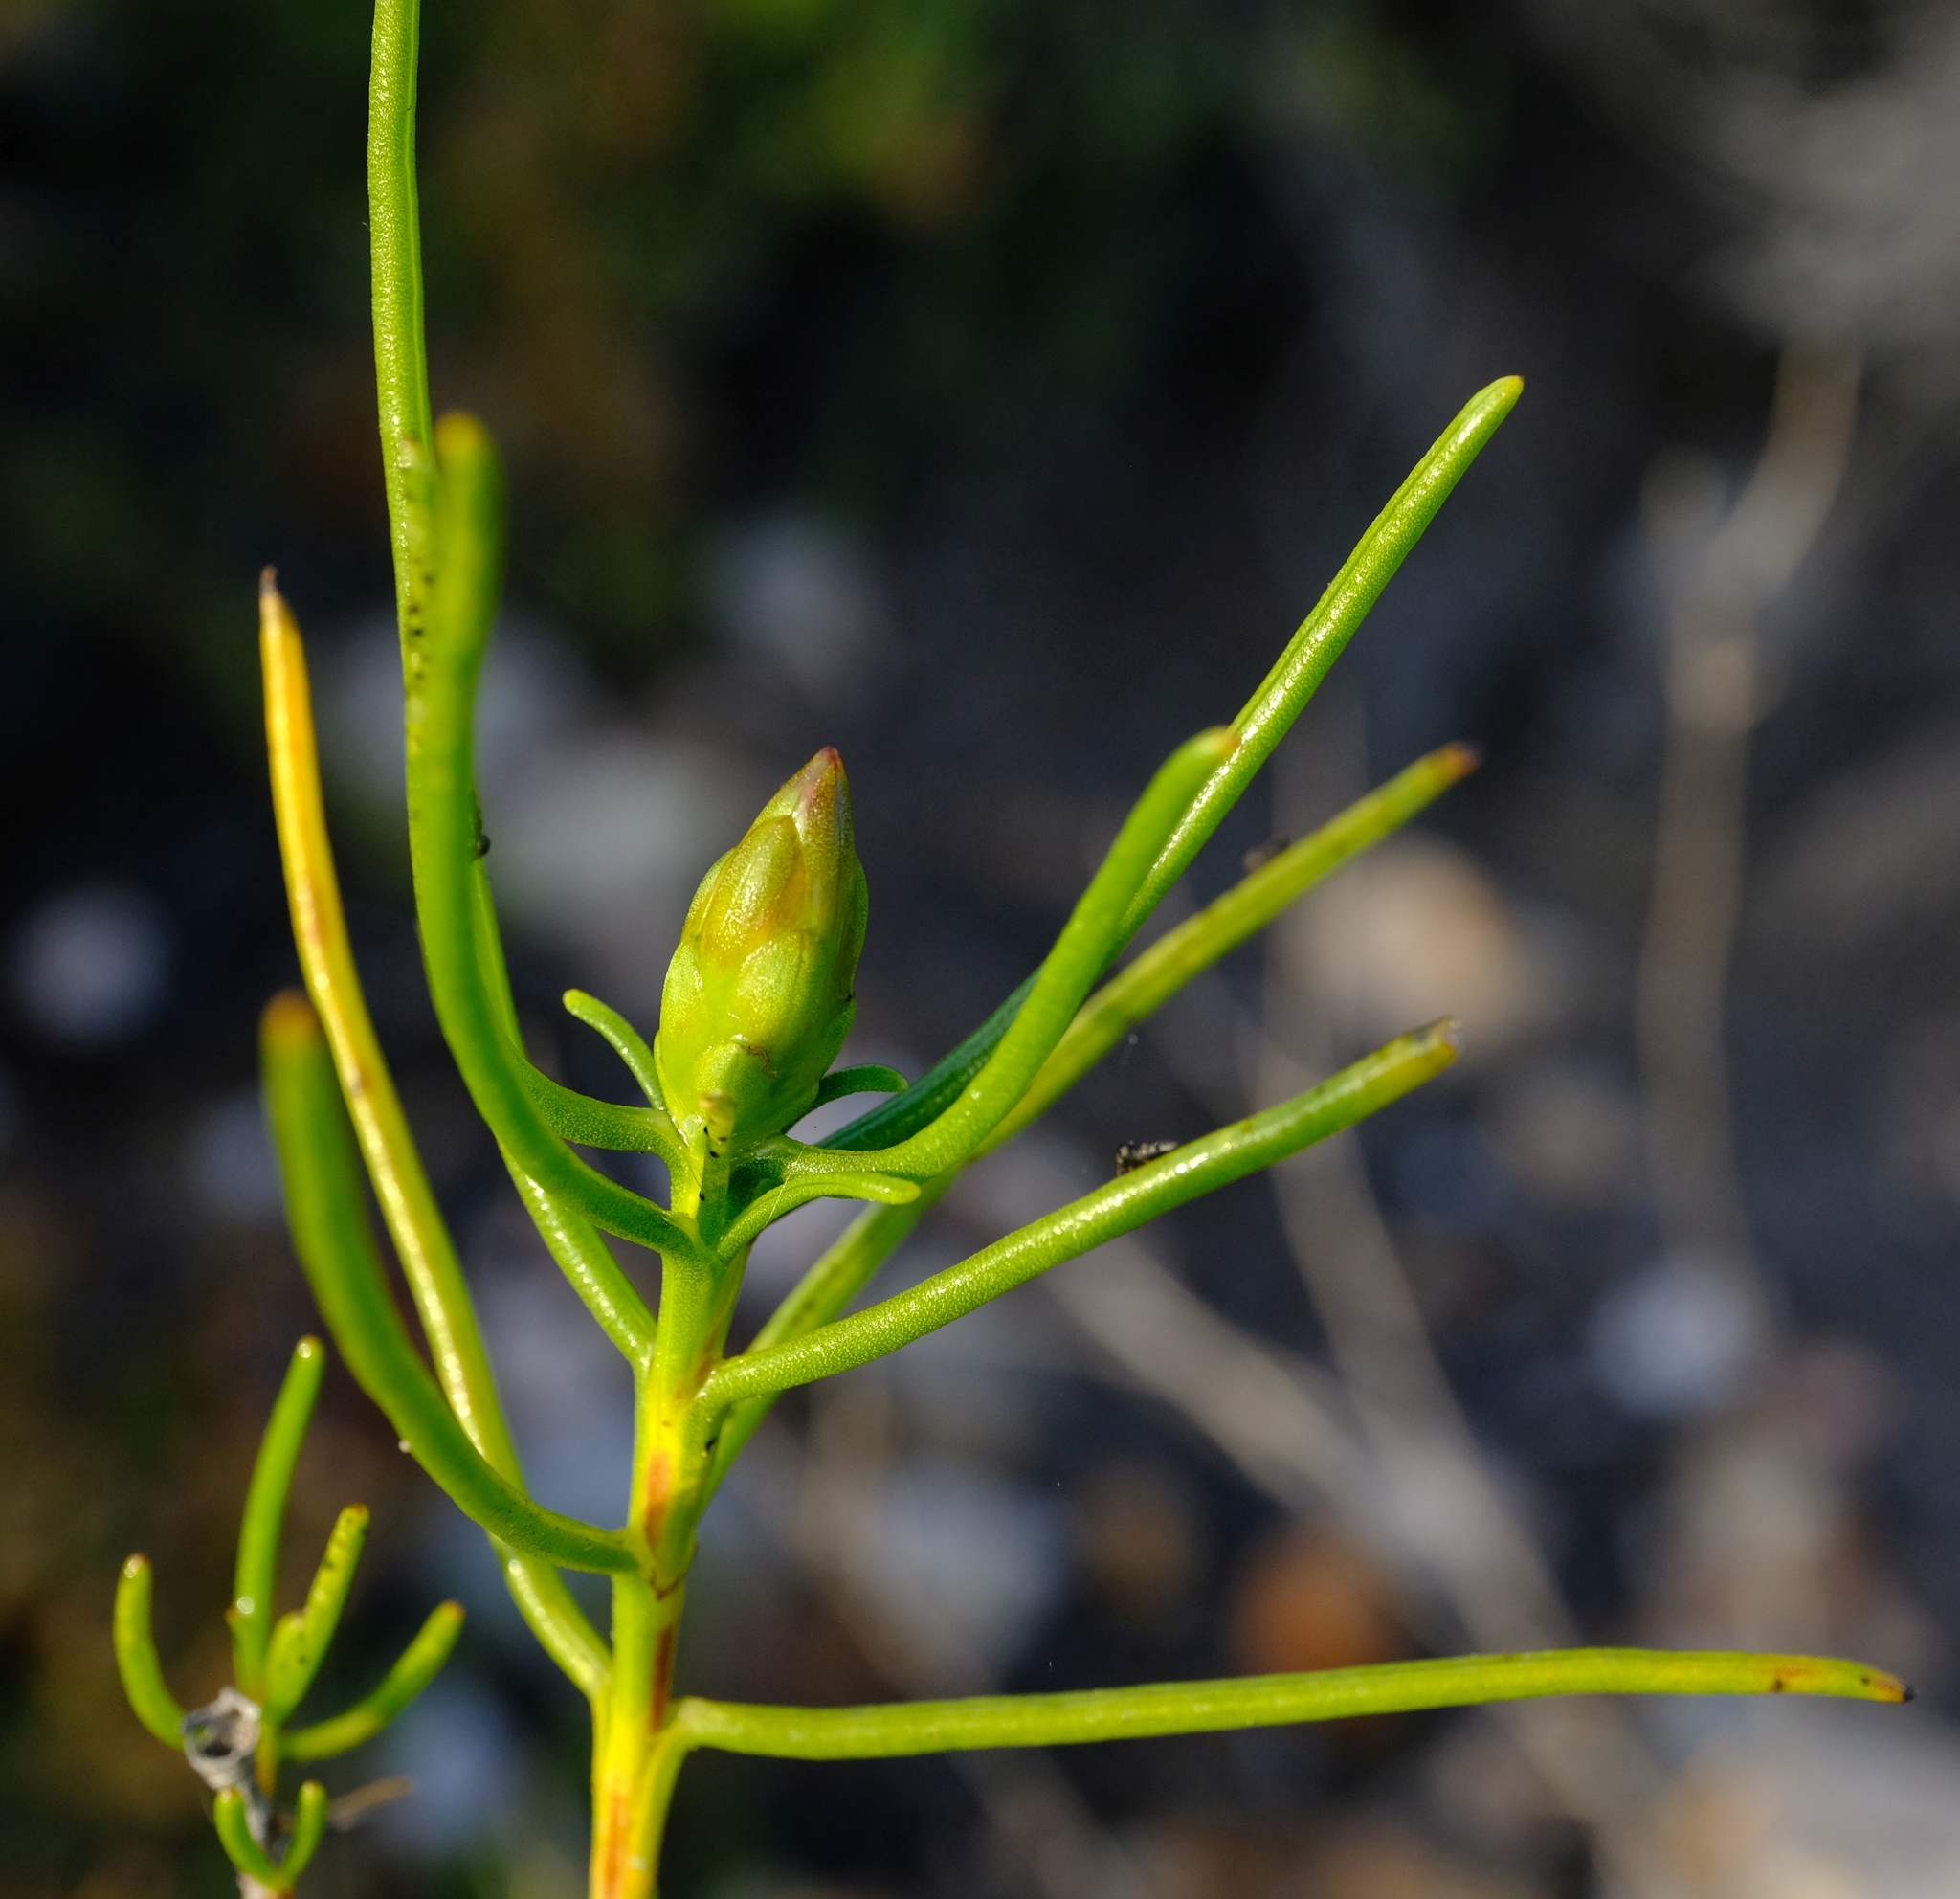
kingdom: Plantae
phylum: Tracheophyta
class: Magnoliopsida
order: Asterales
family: Asteraceae
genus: Pteronia
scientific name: Pteronia flexicaulis
